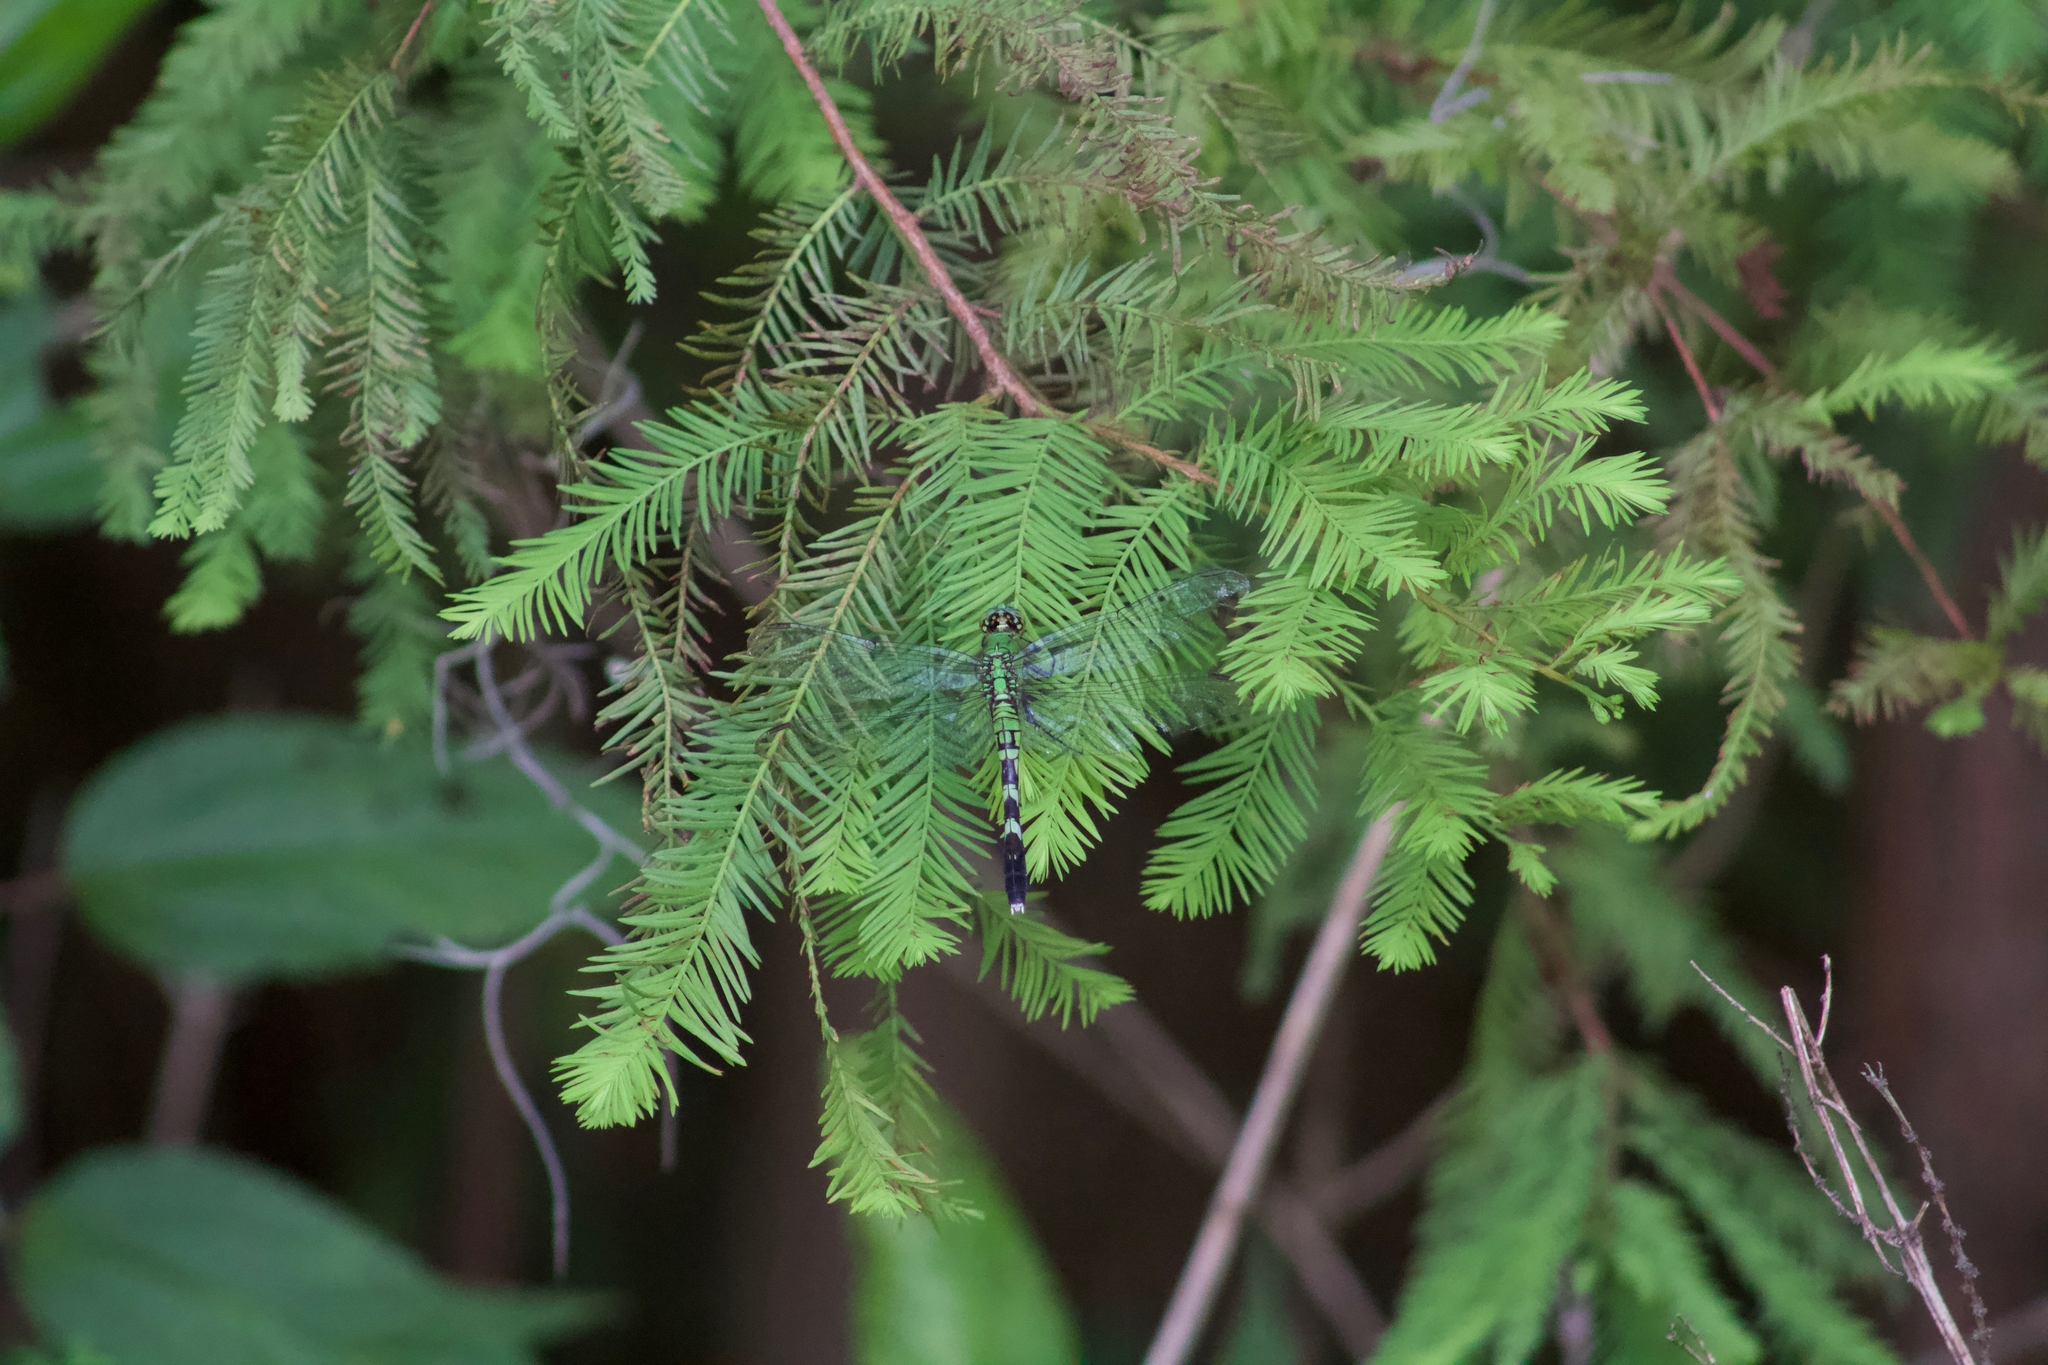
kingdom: Animalia
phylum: Arthropoda
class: Insecta
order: Odonata
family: Libellulidae
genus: Erythemis
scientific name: Erythemis simplicicollis
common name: Eastern pondhawk
